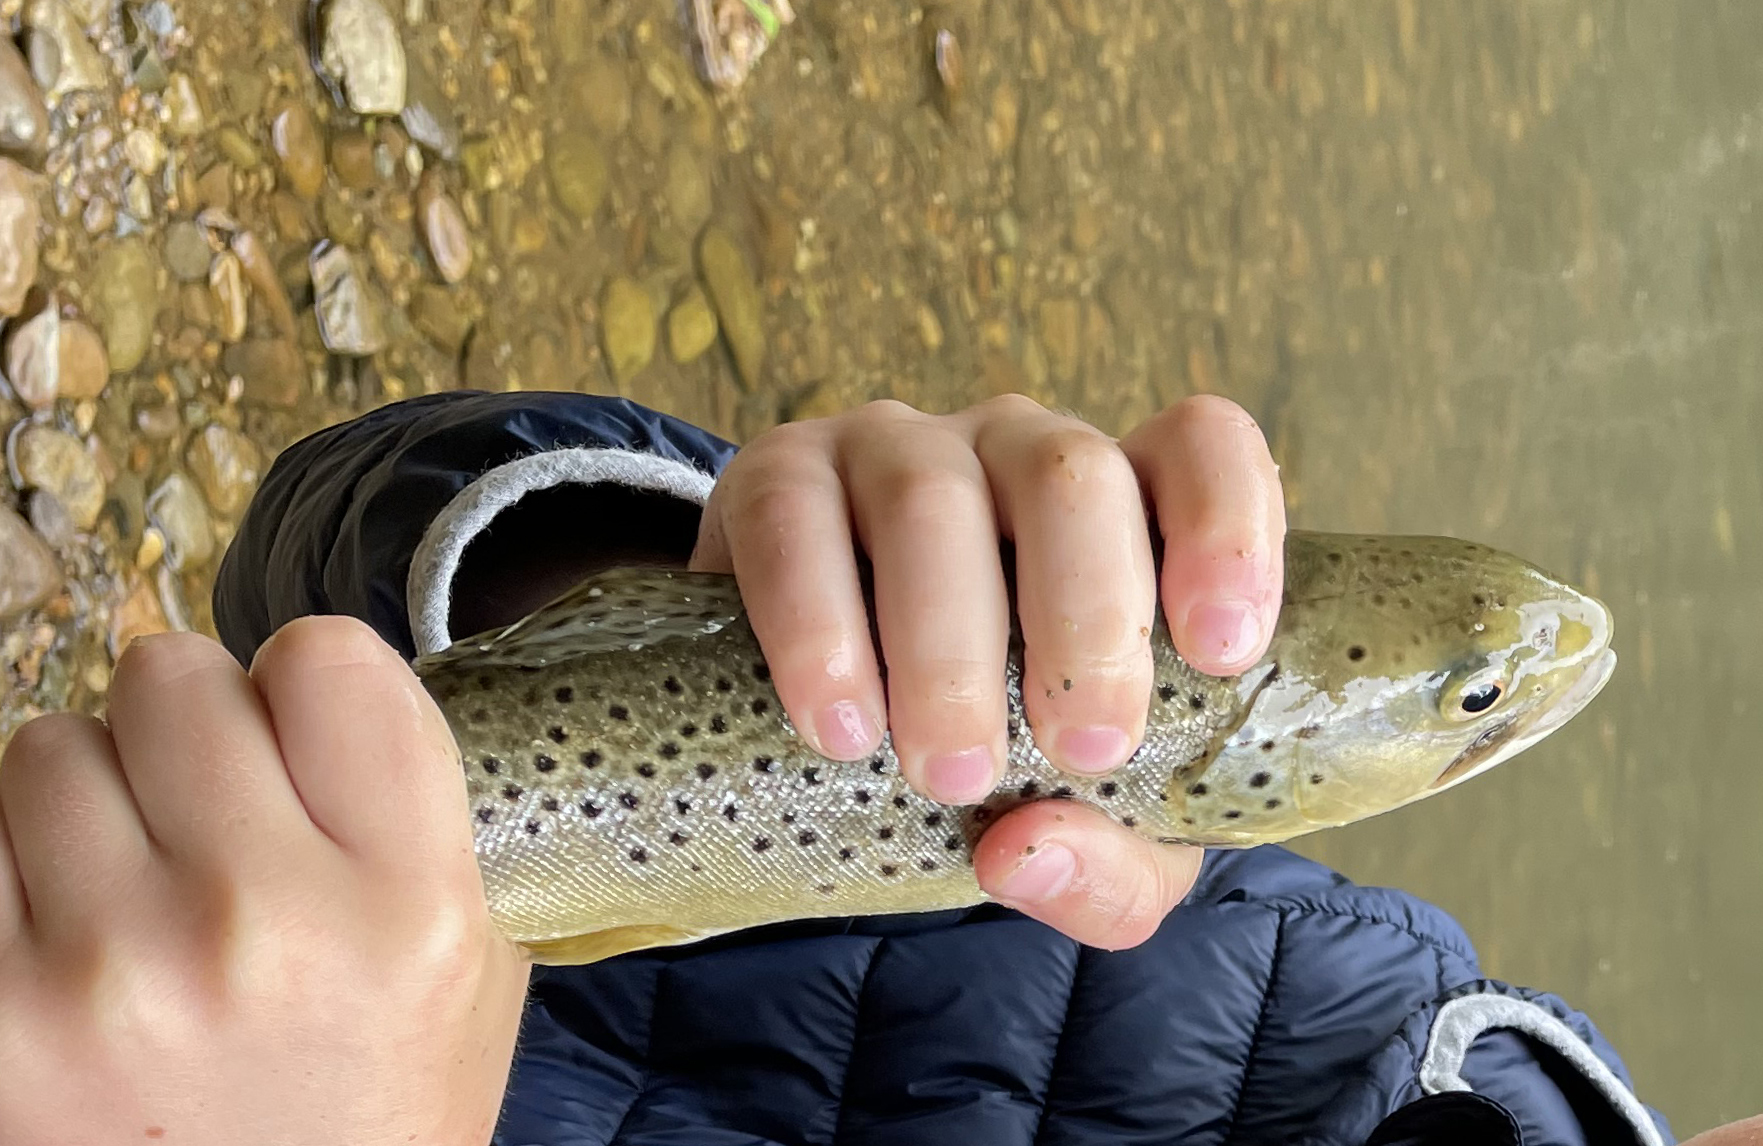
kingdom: Animalia
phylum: Chordata
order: Salmoniformes
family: Salmonidae
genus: Salmo
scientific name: Salmo trutta
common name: Brown trout
